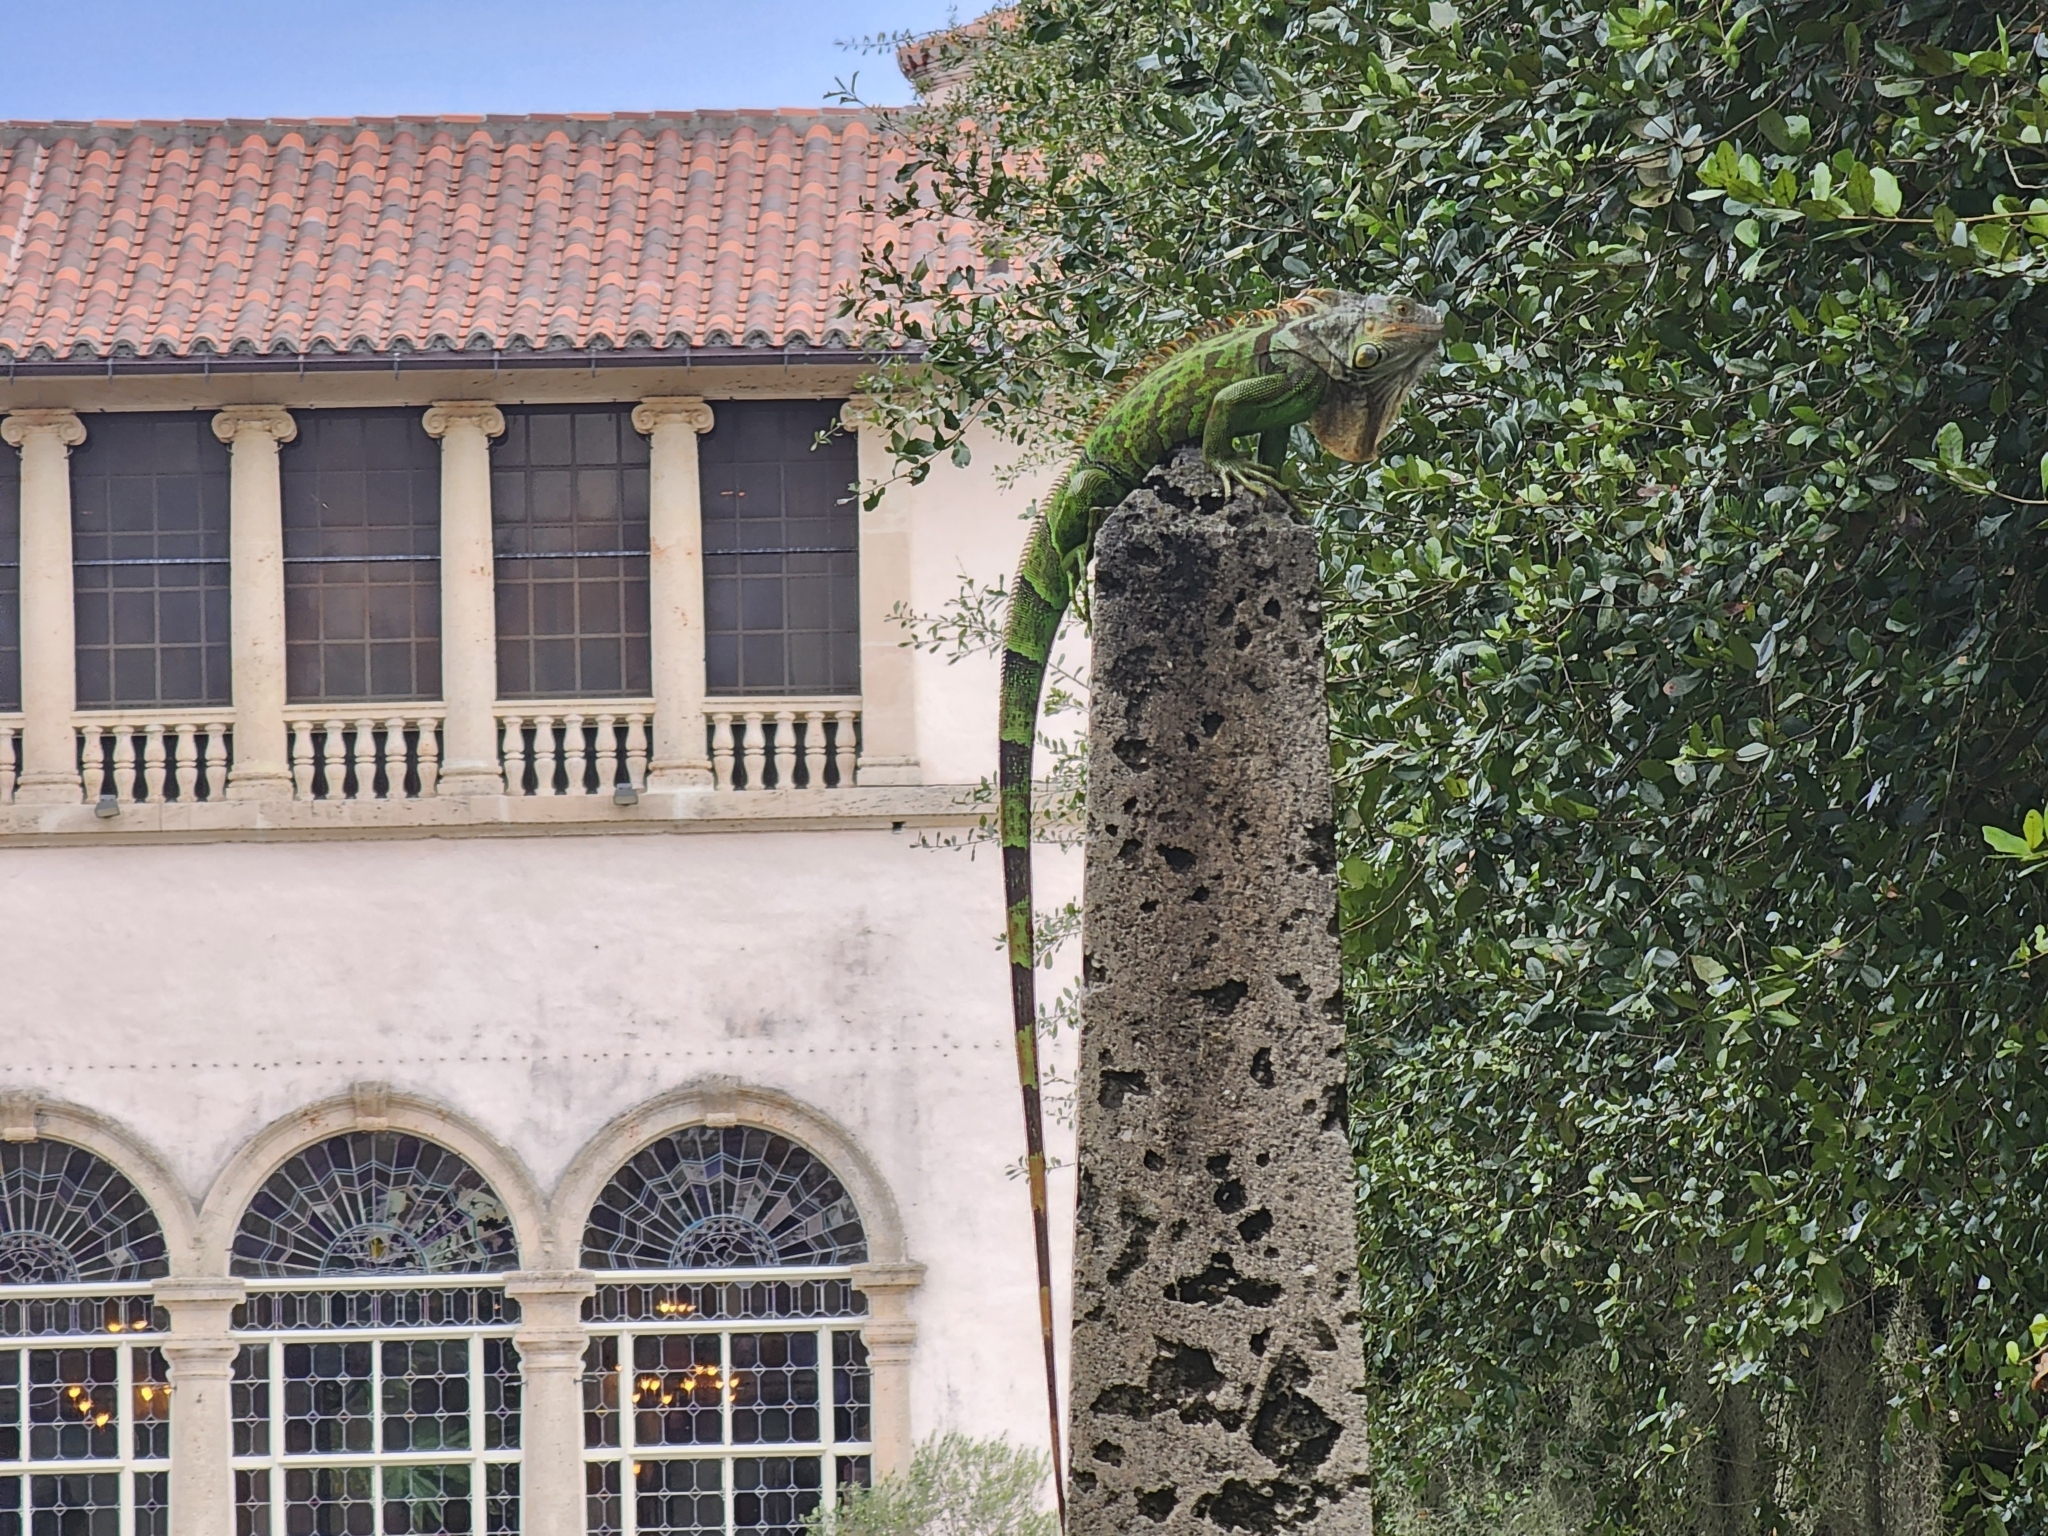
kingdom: Animalia
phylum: Chordata
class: Squamata
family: Iguanidae
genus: Iguana
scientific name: Iguana iguana
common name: Green iguana
